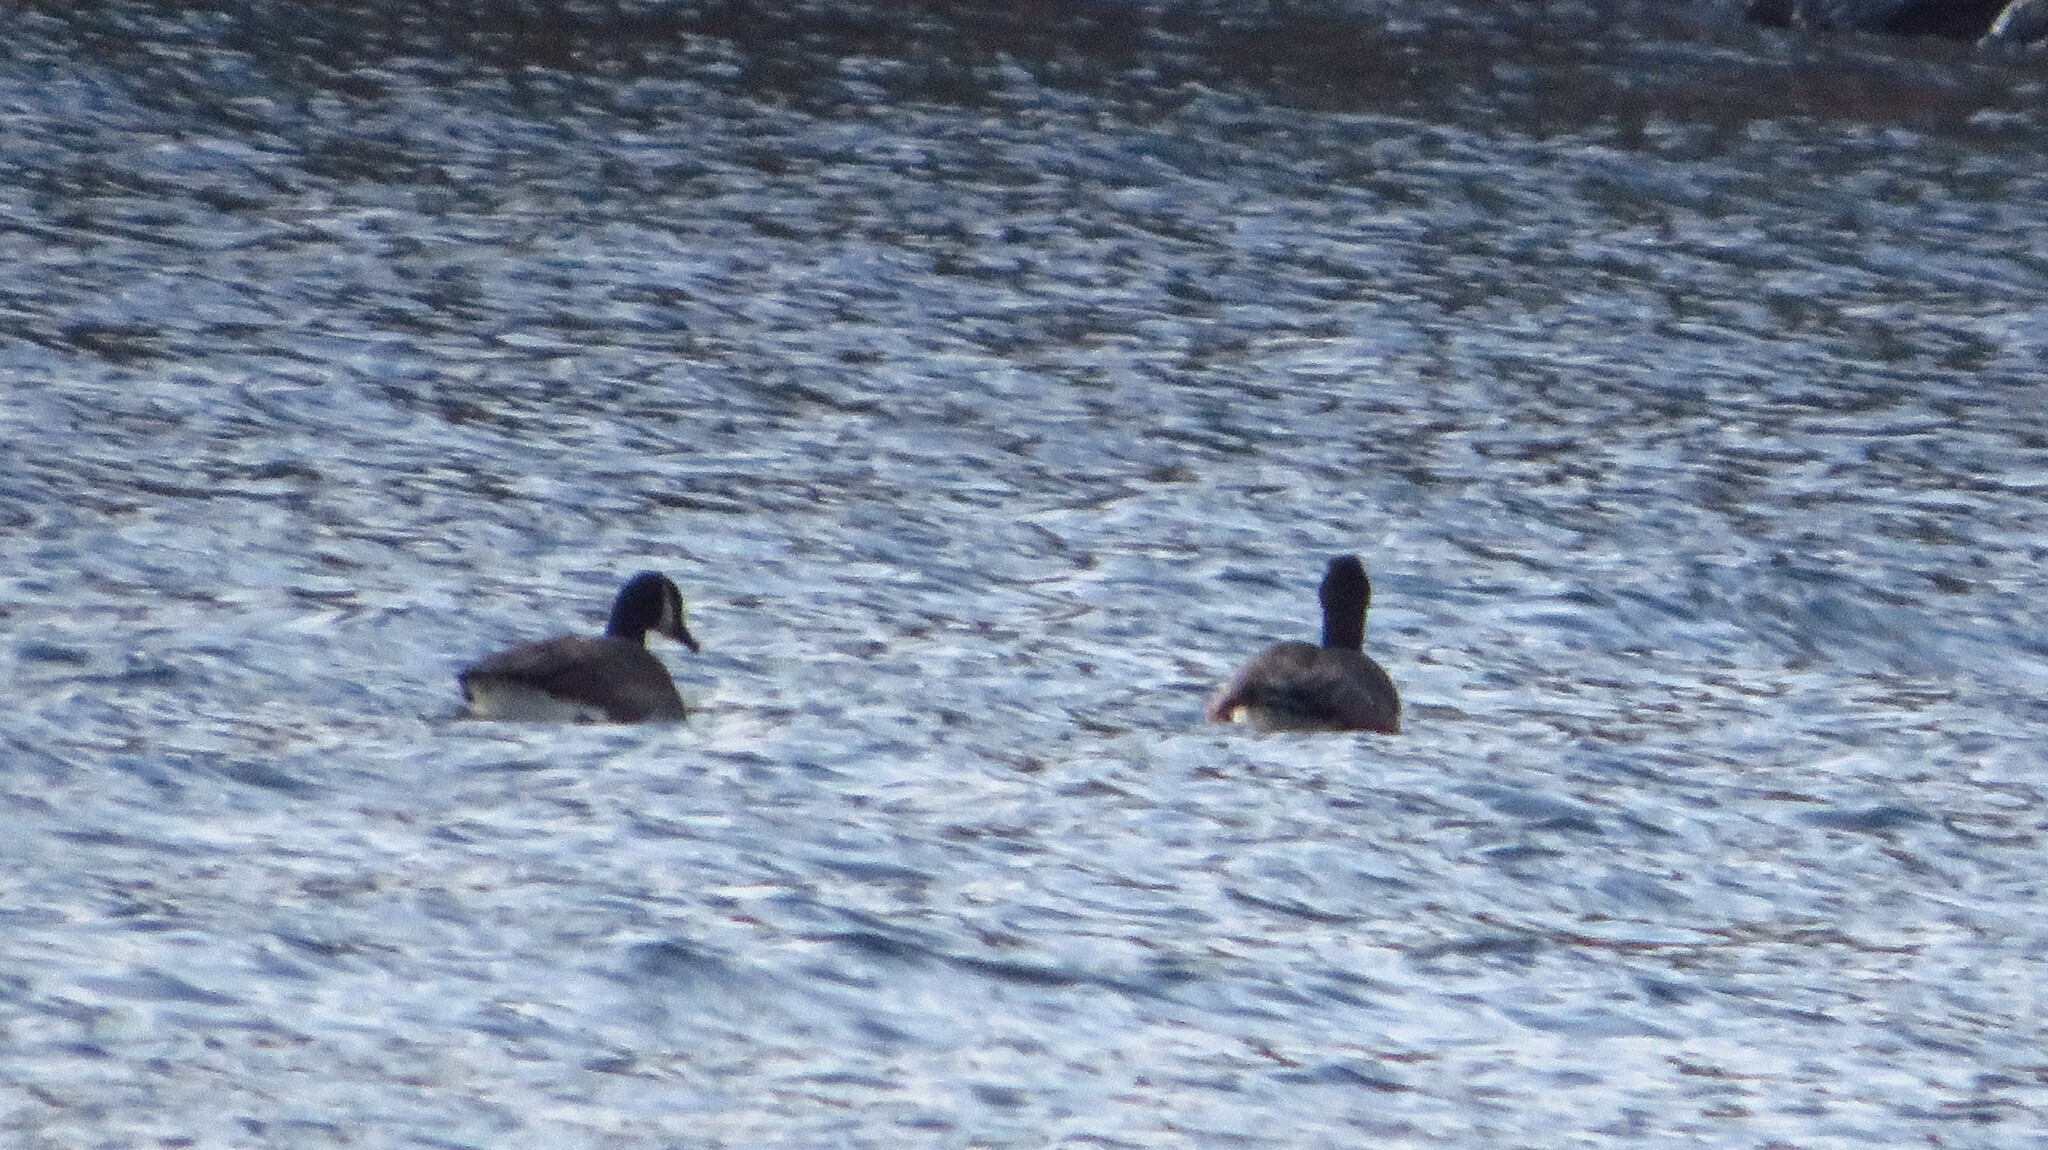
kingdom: Animalia
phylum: Chordata
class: Aves
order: Anseriformes
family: Anatidae
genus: Branta
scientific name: Branta canadensis
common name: Canada goose
